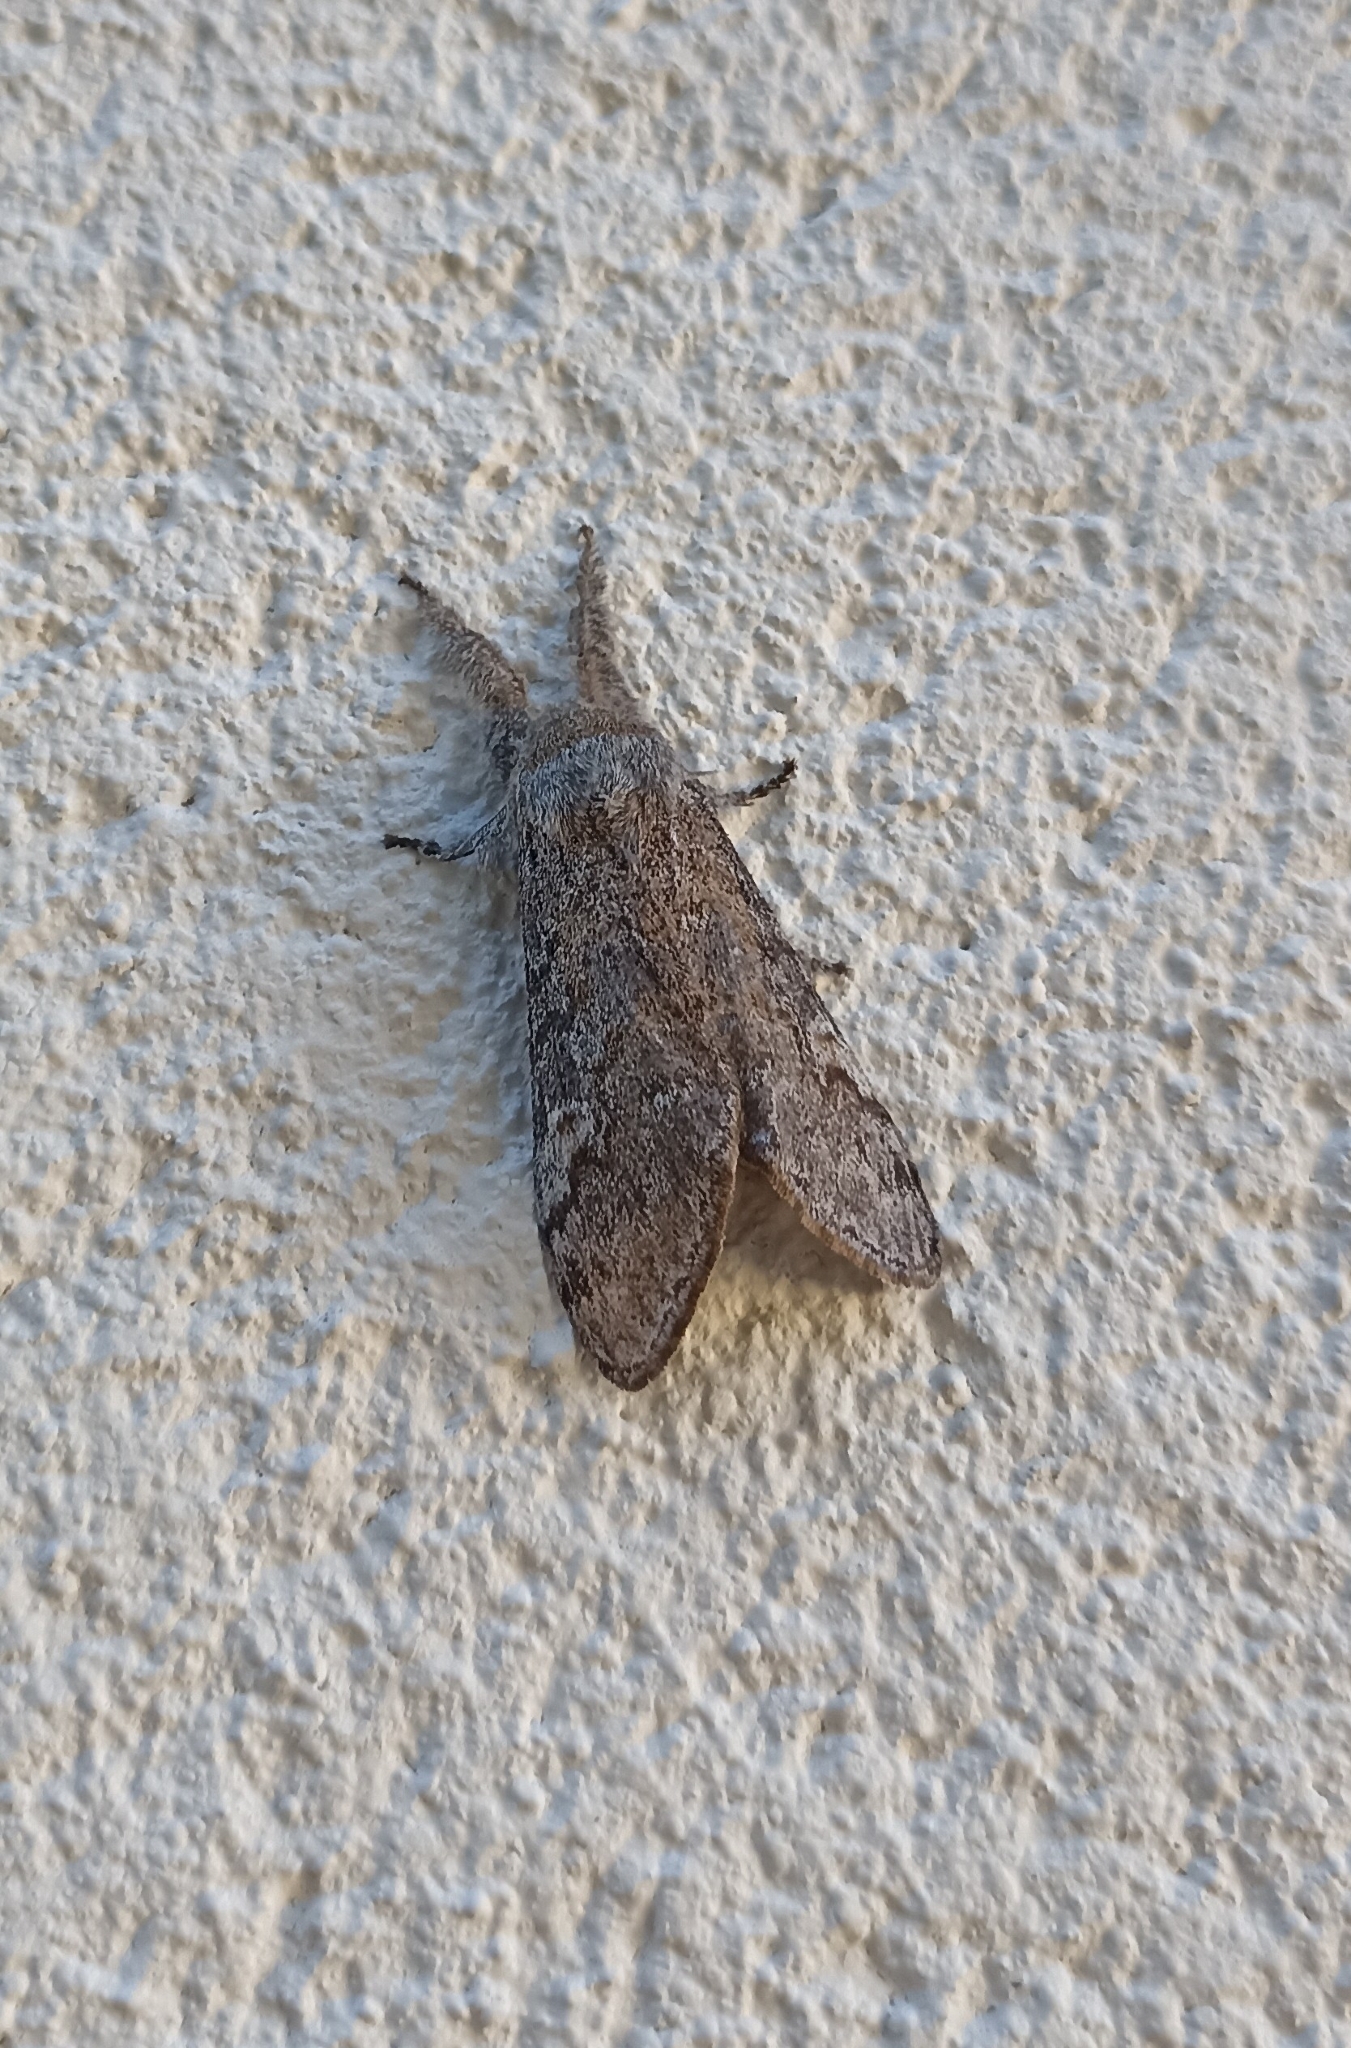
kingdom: Animalia
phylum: Arthropoda
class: Insecta
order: Lepidoptera
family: Erebidae
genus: Calliteara
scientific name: Calliteara
